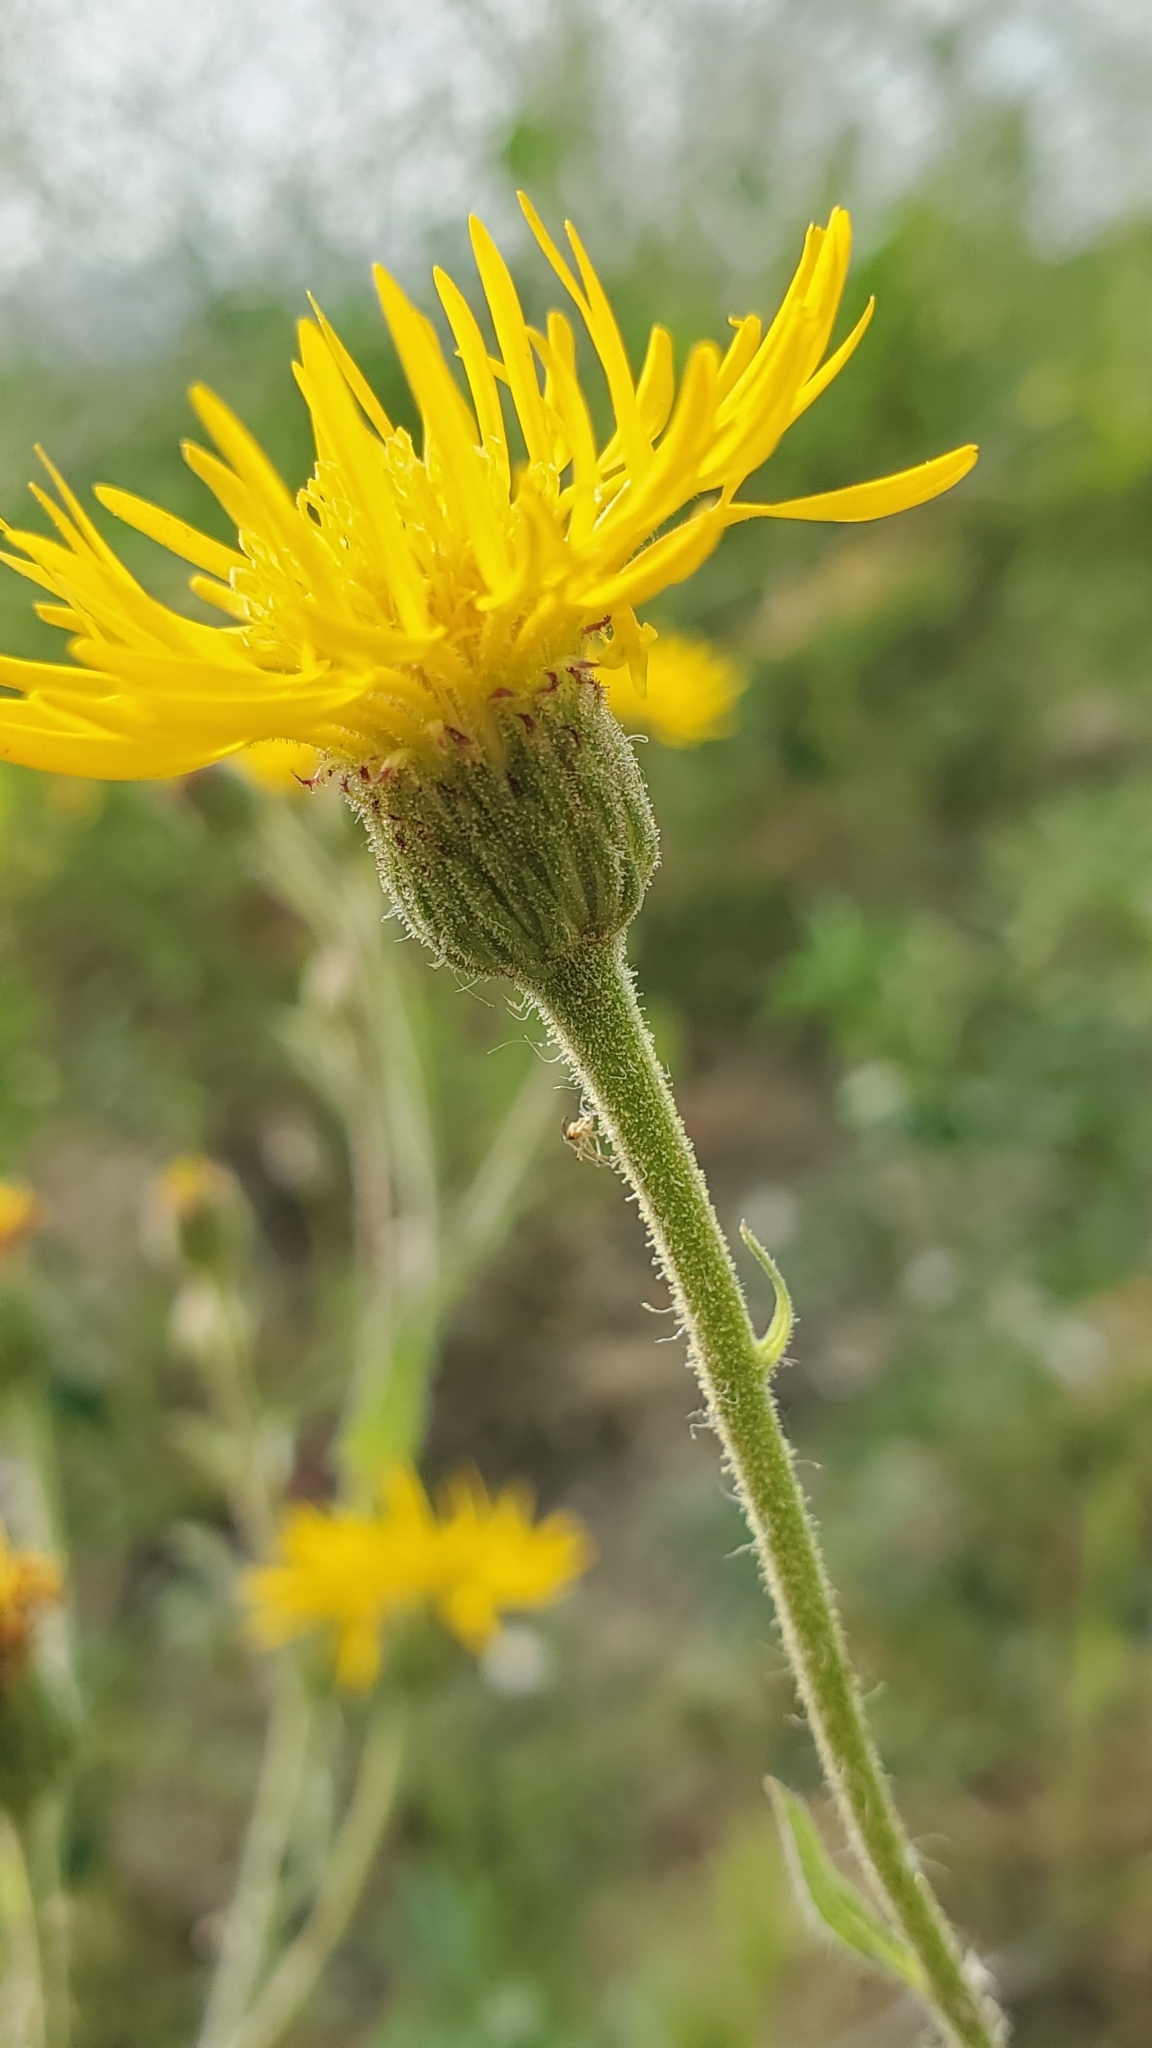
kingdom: Plantae
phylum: Tracheophyta
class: Magnoliopsida
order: Asterales
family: Asteraceae
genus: Heterotheca
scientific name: Heterotheca grandiflora
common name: Telegraphweed
